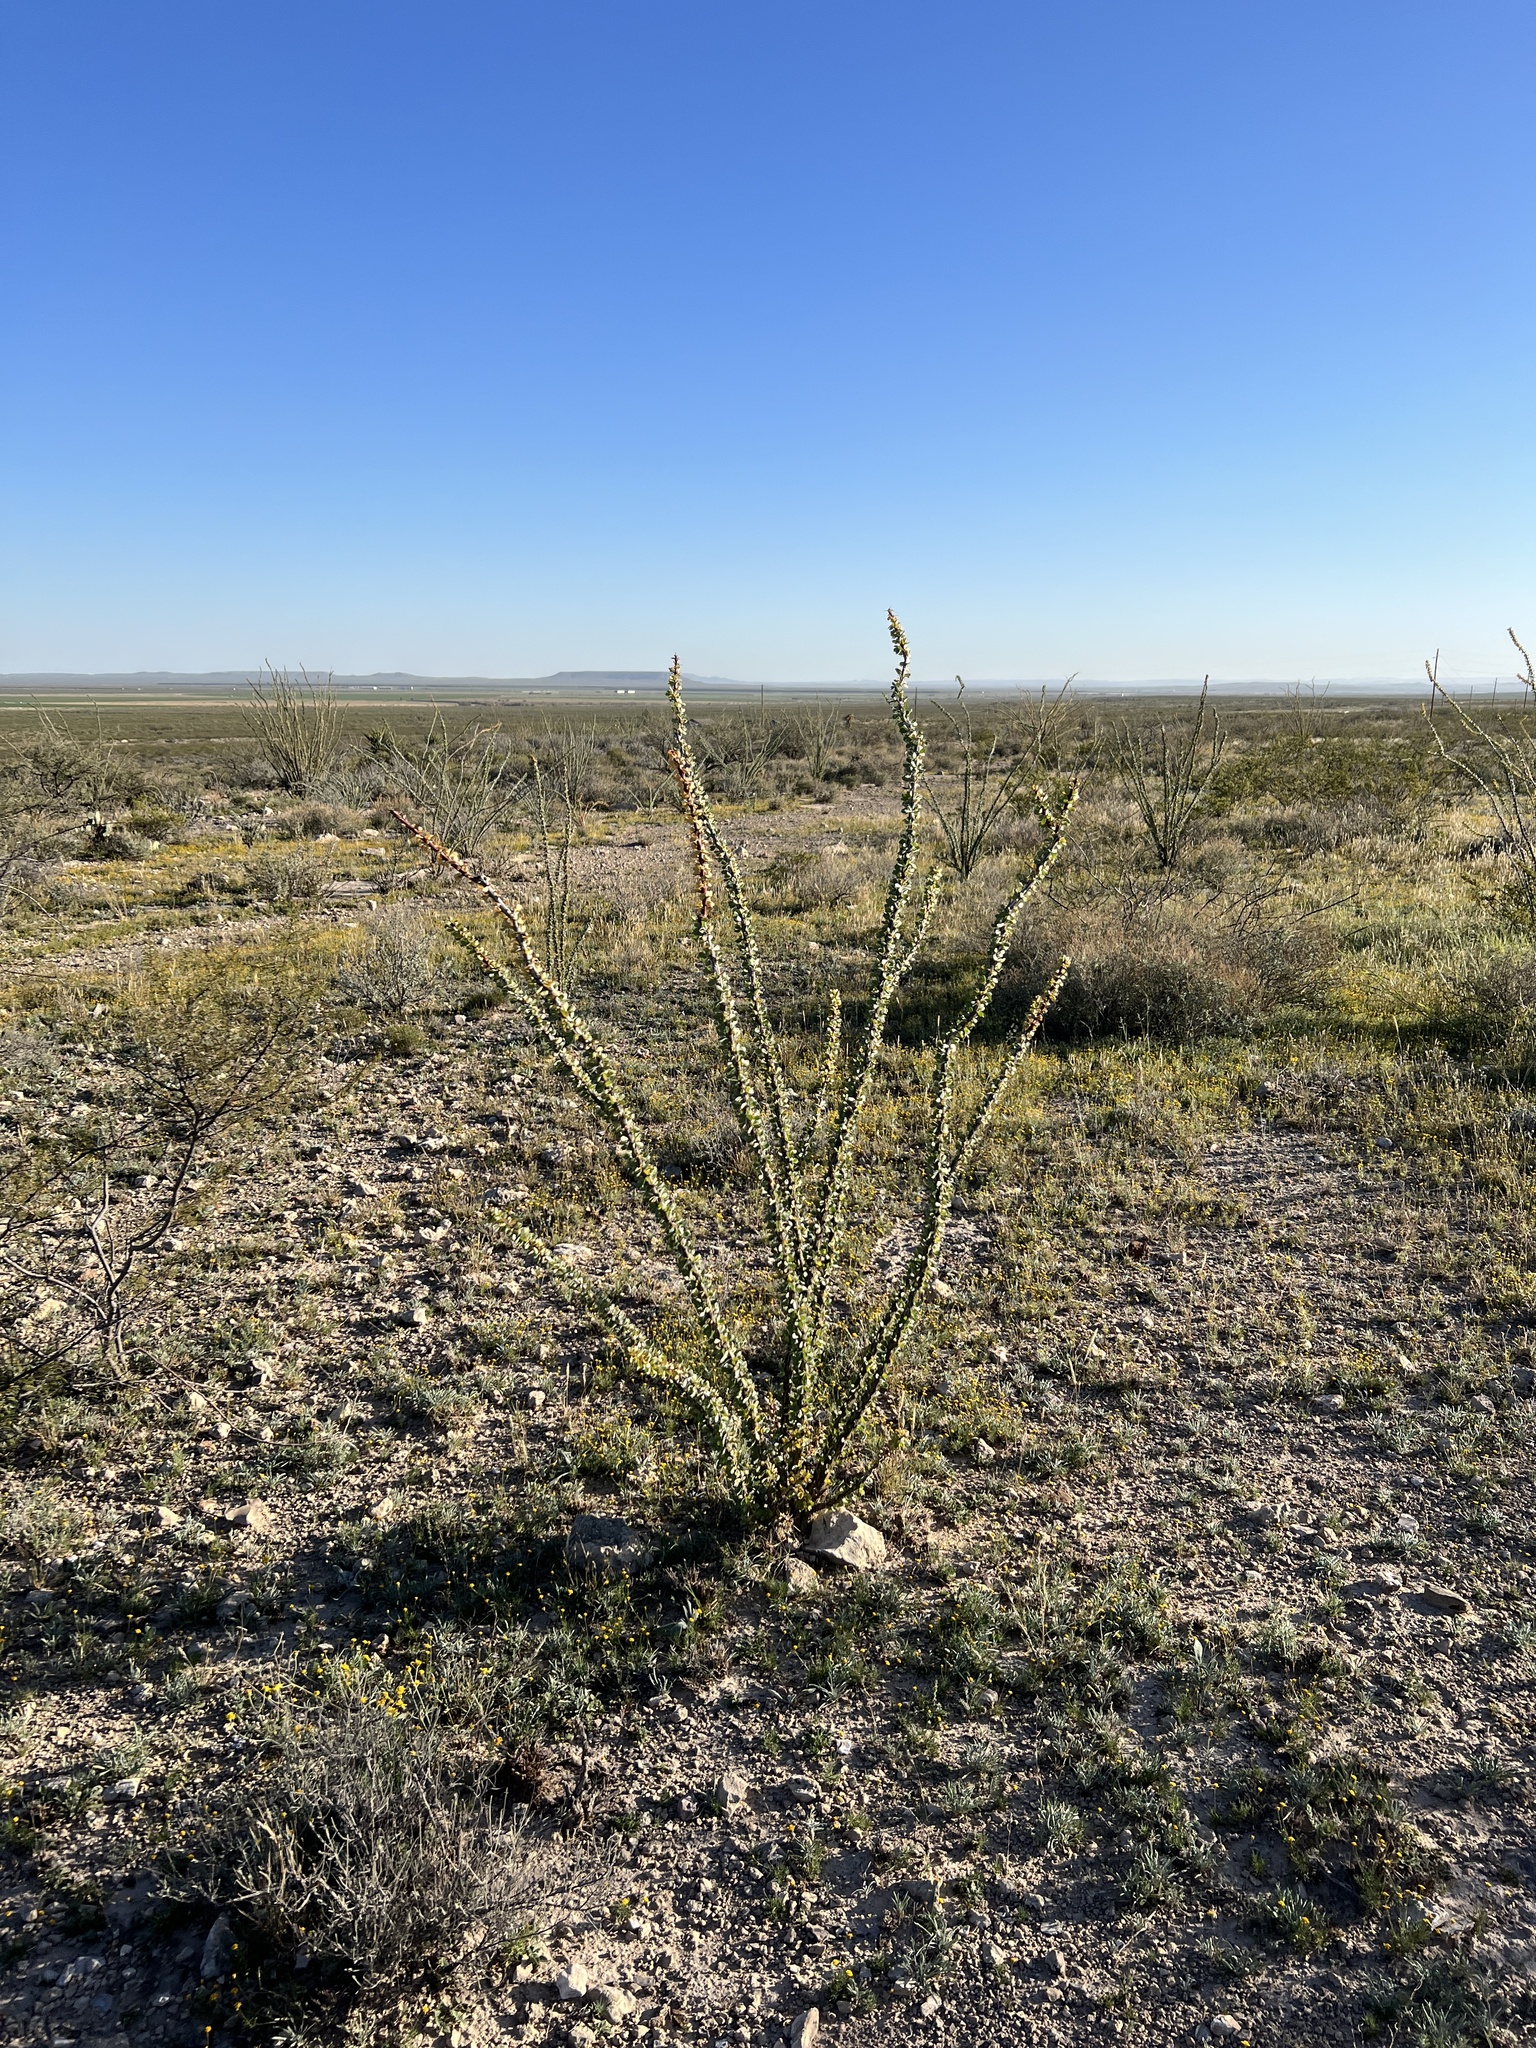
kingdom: Plantae
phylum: Tracheophyta
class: Magnoliopsida
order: Ericales
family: Fouquieriaceae
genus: Fouquieria
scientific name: Fouquieria splendens
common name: Vine-cactus
